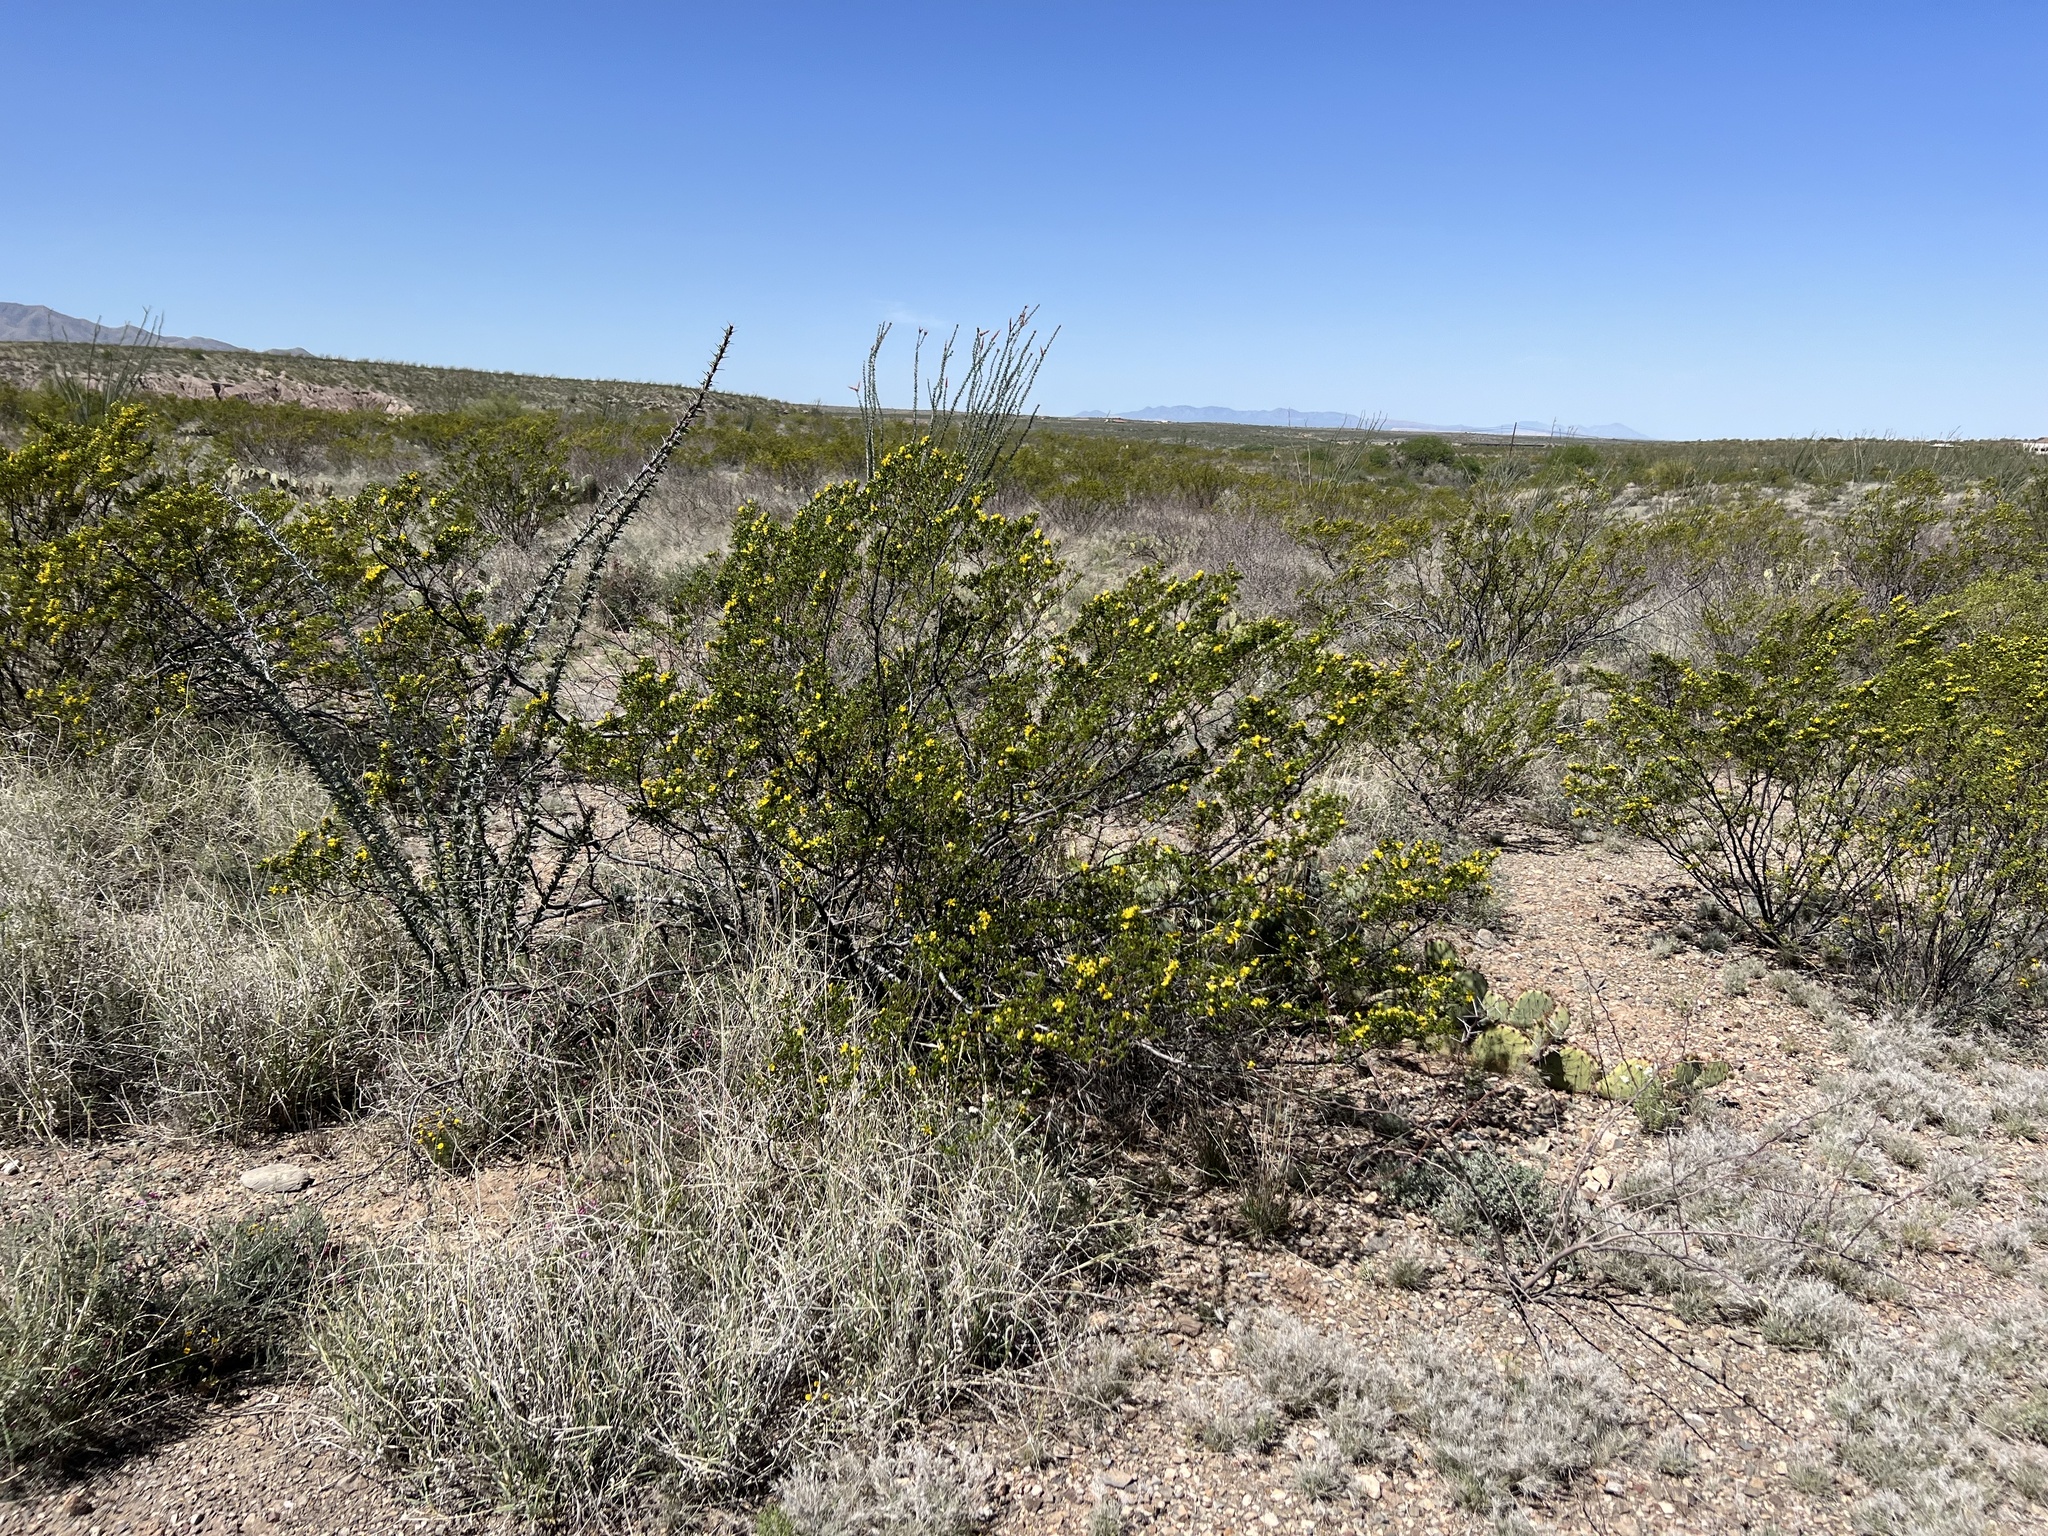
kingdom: Plantae
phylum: Tracheophyta
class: Magnoliopsida
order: Zygophyllales
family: Zygophyllaceae
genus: Larrea
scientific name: Larrea tridentata
